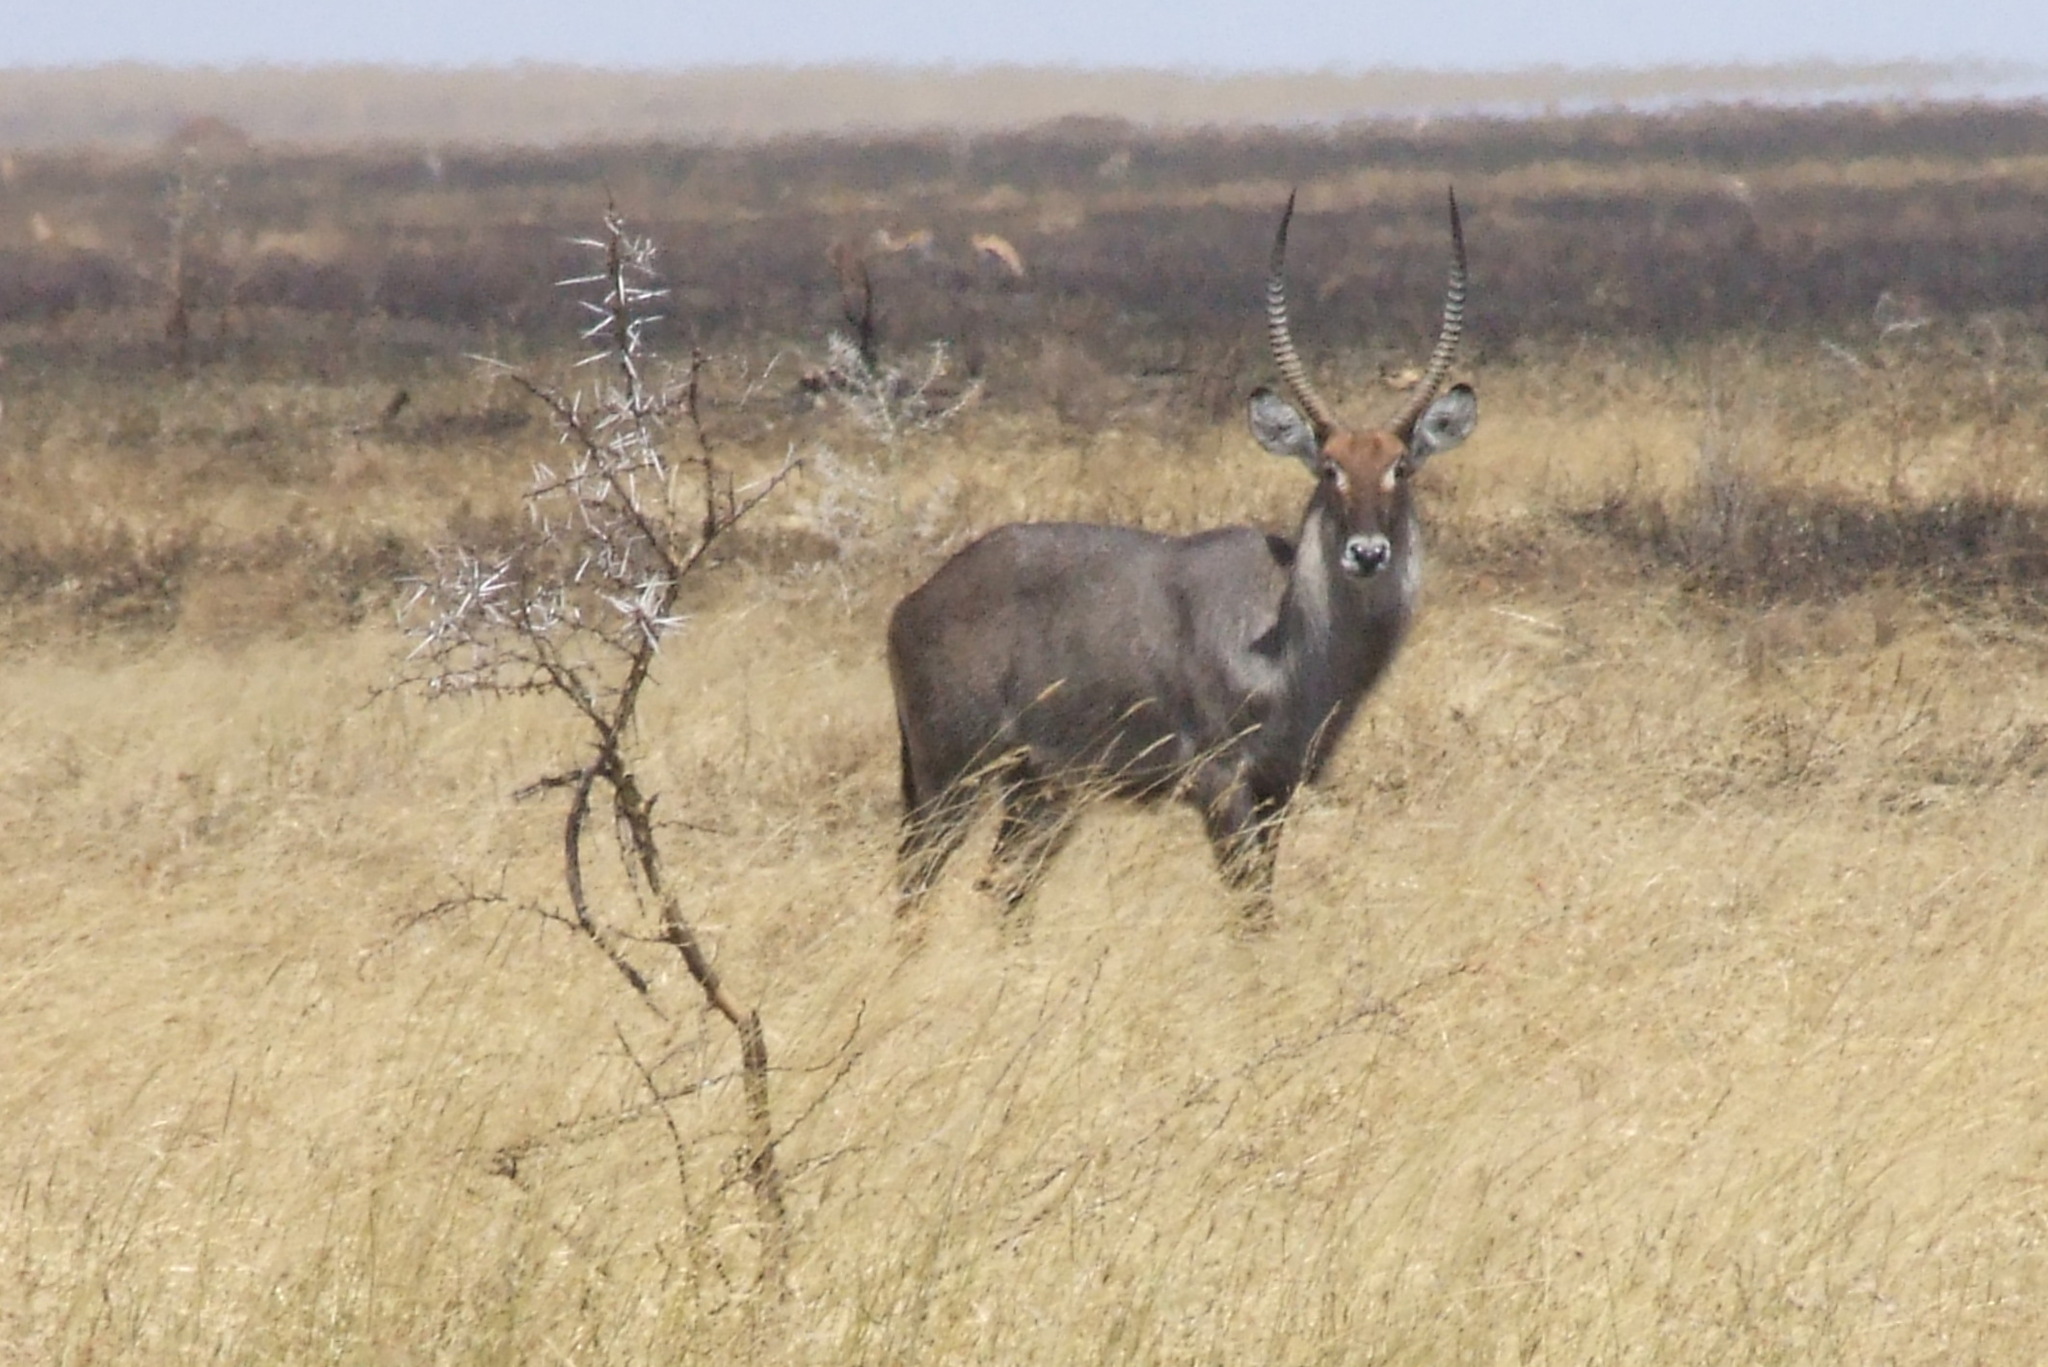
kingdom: Animalia
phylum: Chordata
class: Mammalia
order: Artiodactyla
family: Bovidae
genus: Kobus
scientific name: Kobus ellipsiprymnus
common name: Waterbuck
